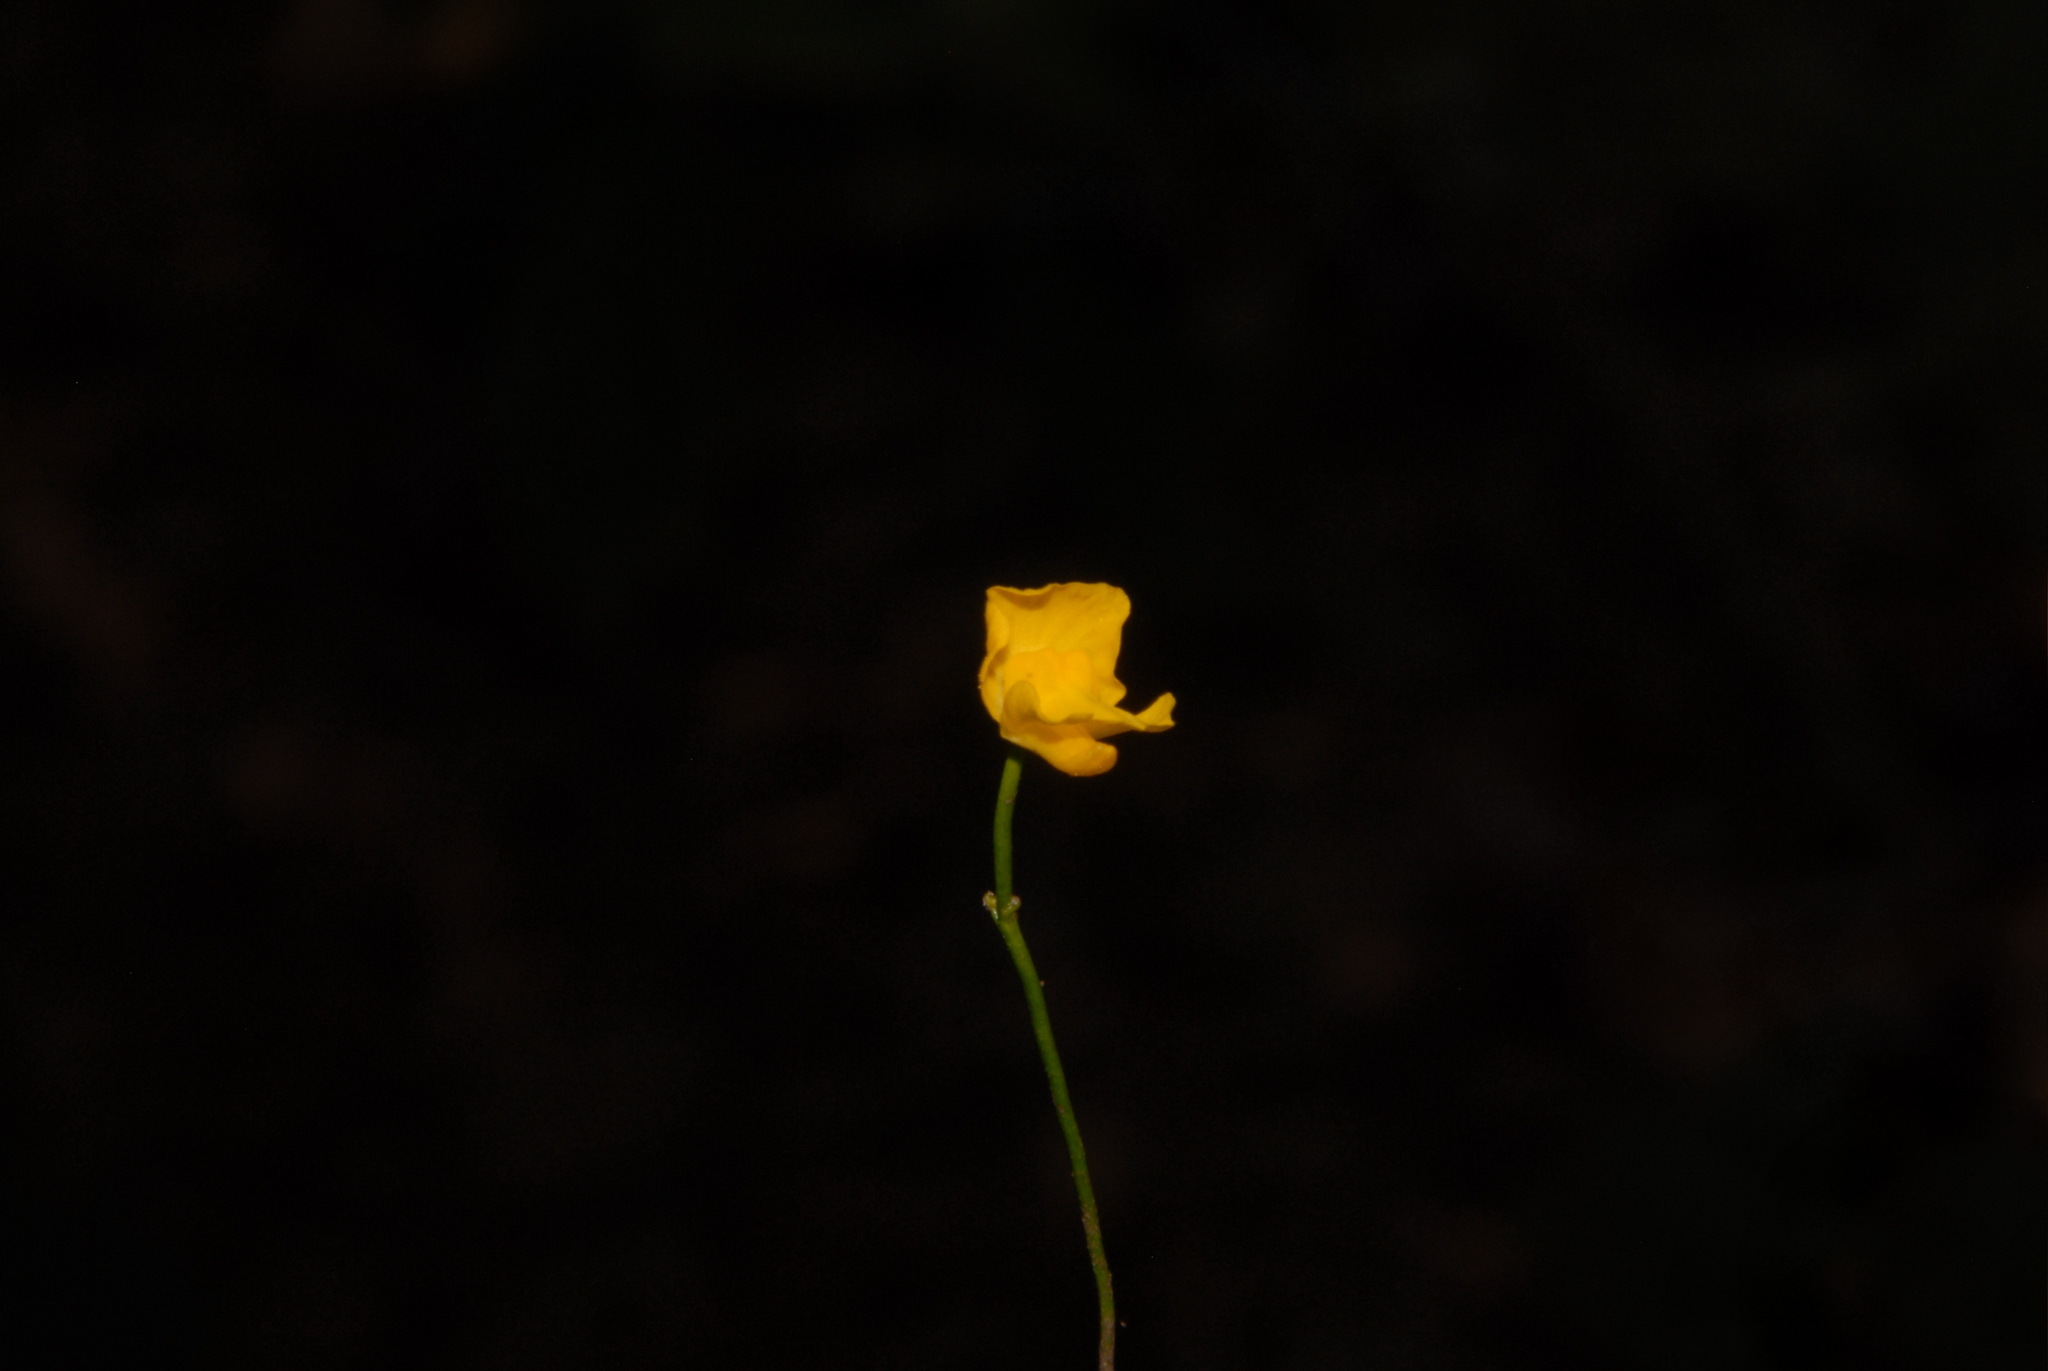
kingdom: Plantae
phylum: Tracheophyta
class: Magnoliopsida
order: Lamiales
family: Lentibulariaceae
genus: Utricularia
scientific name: Utricularia gibba
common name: Humped bladderwort
